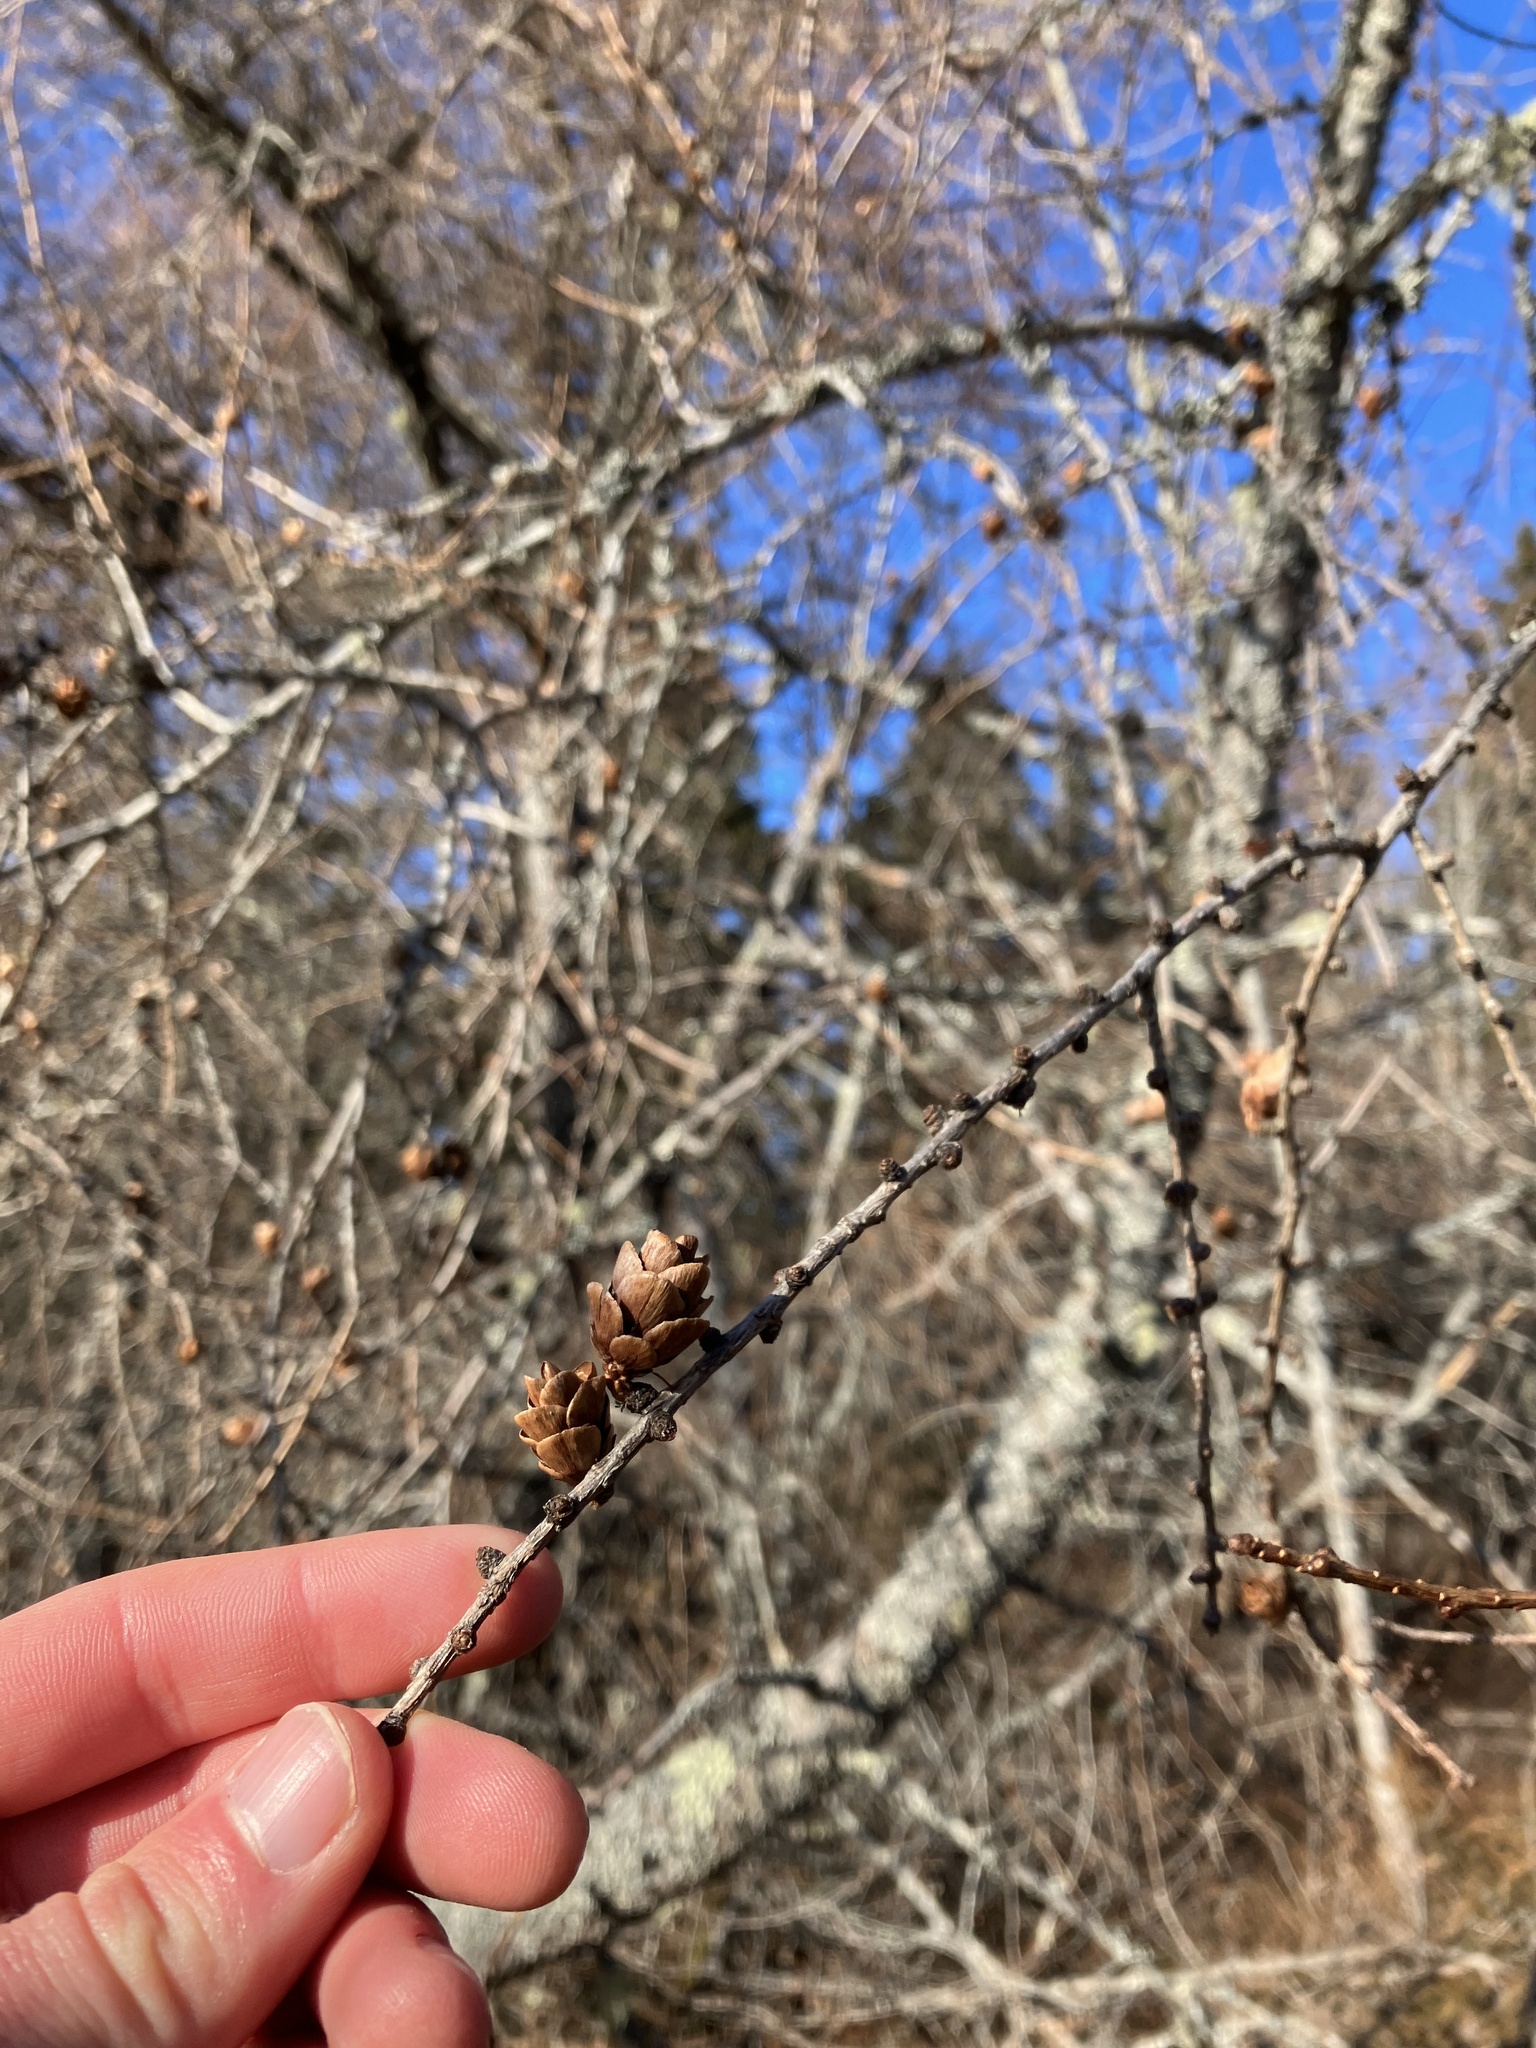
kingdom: Plantae
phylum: Tracheophyta
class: Pinopsida
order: Pinales
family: Pinaceae
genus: Larix
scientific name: Larix laricina
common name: American larch
